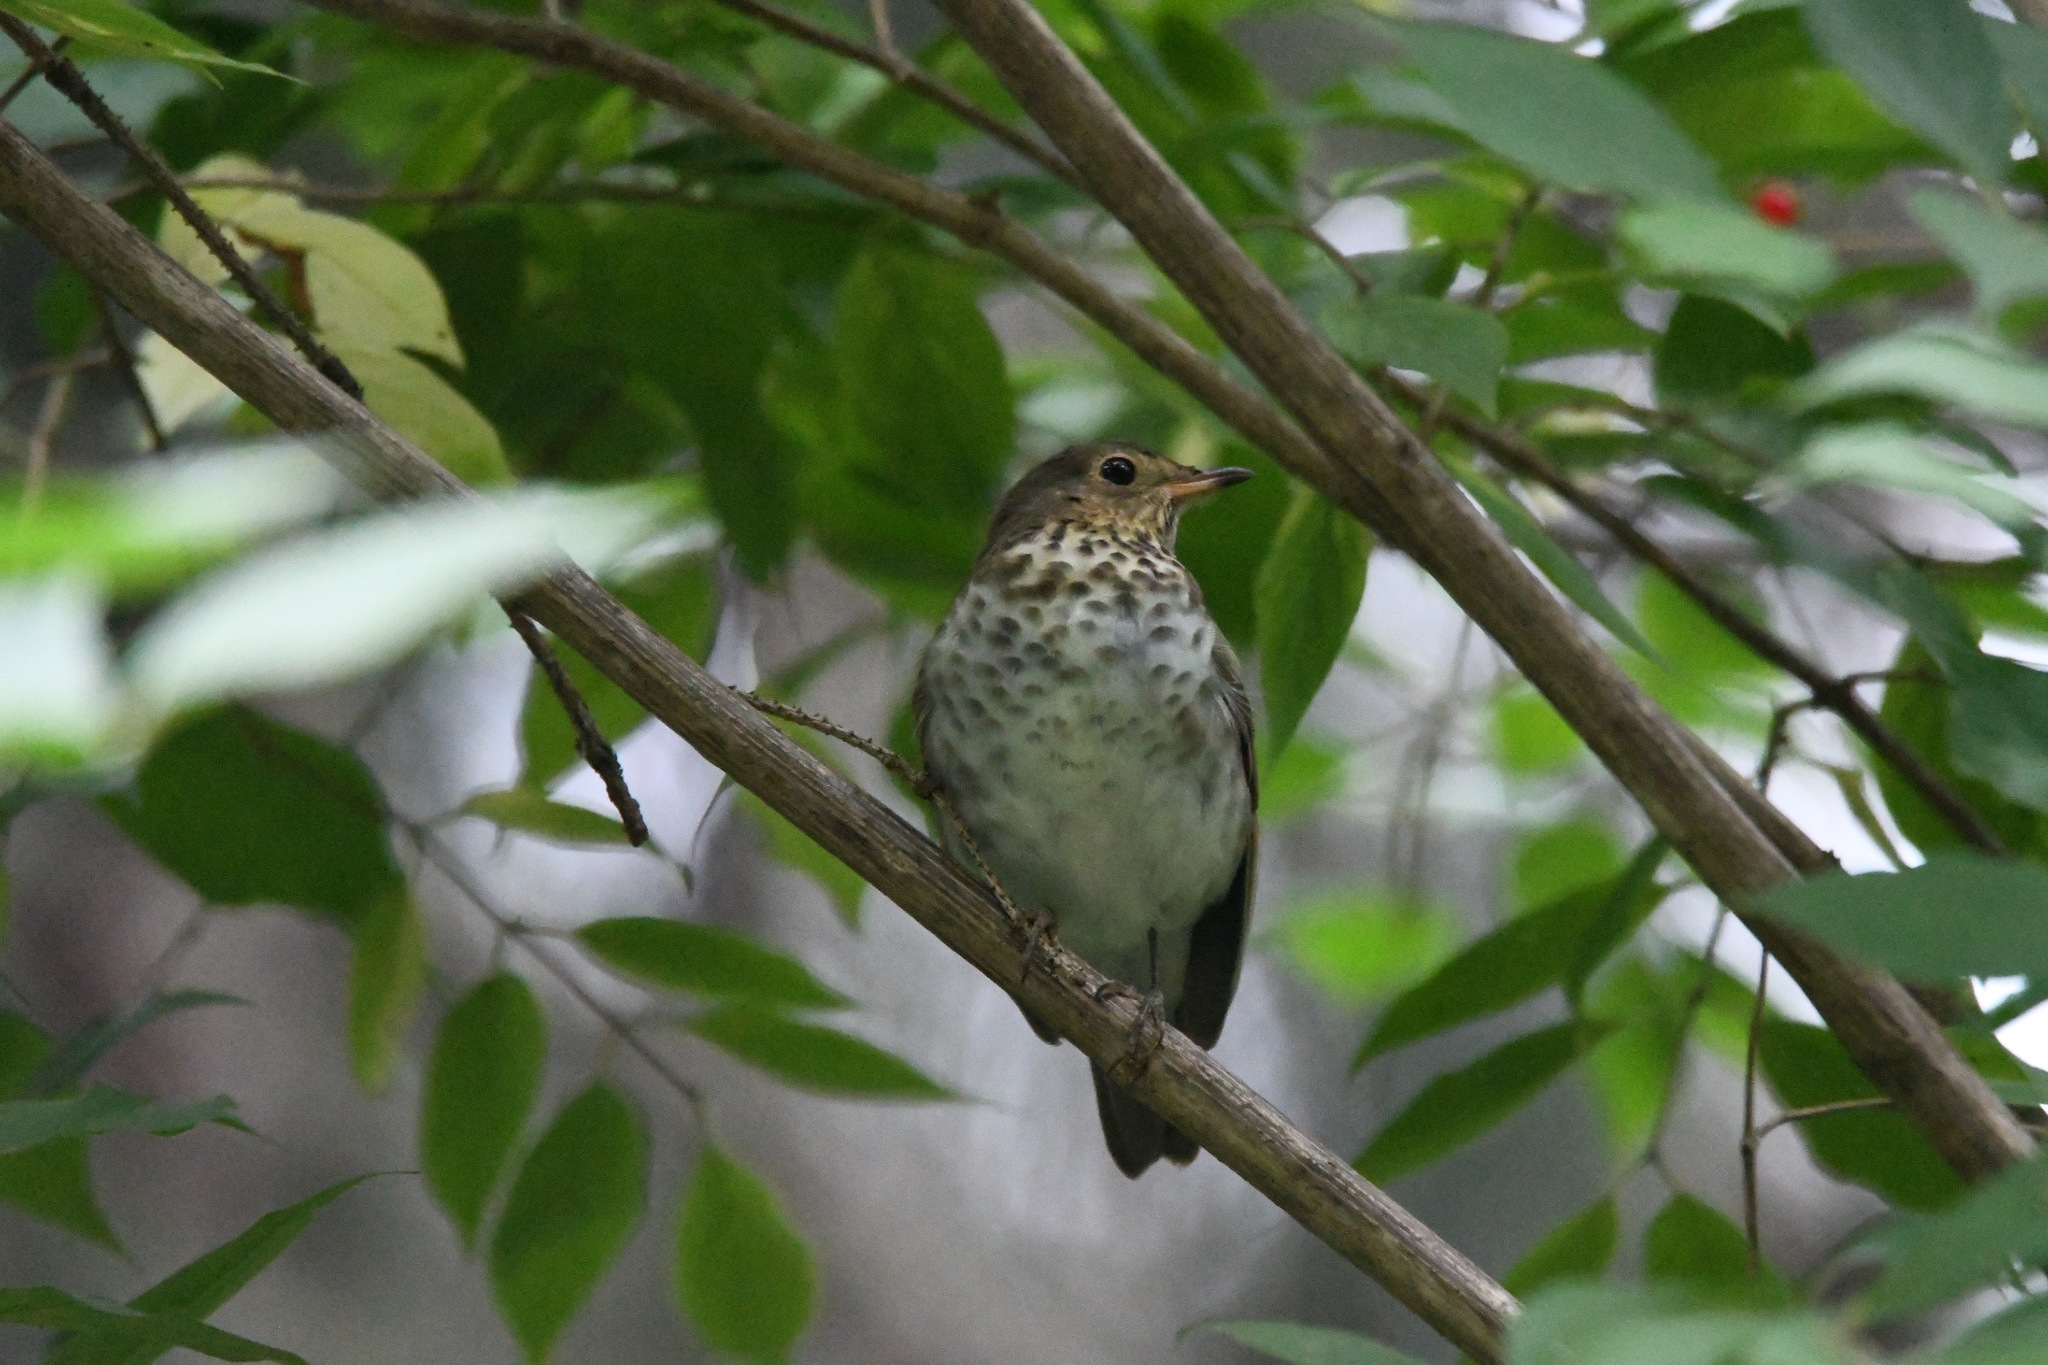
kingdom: Animalia
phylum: Chordata
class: Aves
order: Passeriformes
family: Turdidae
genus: Catharus
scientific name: Catharus ustulatus
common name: Swainson's thrush
